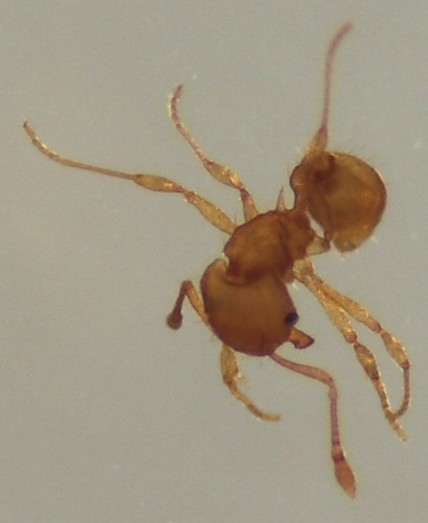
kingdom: Animalia
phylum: Arthropoda
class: Insecta
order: Hymenoptera
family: Formicidae
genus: Wasmannia
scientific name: Wasmannia auropunctata
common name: Little fire ant
